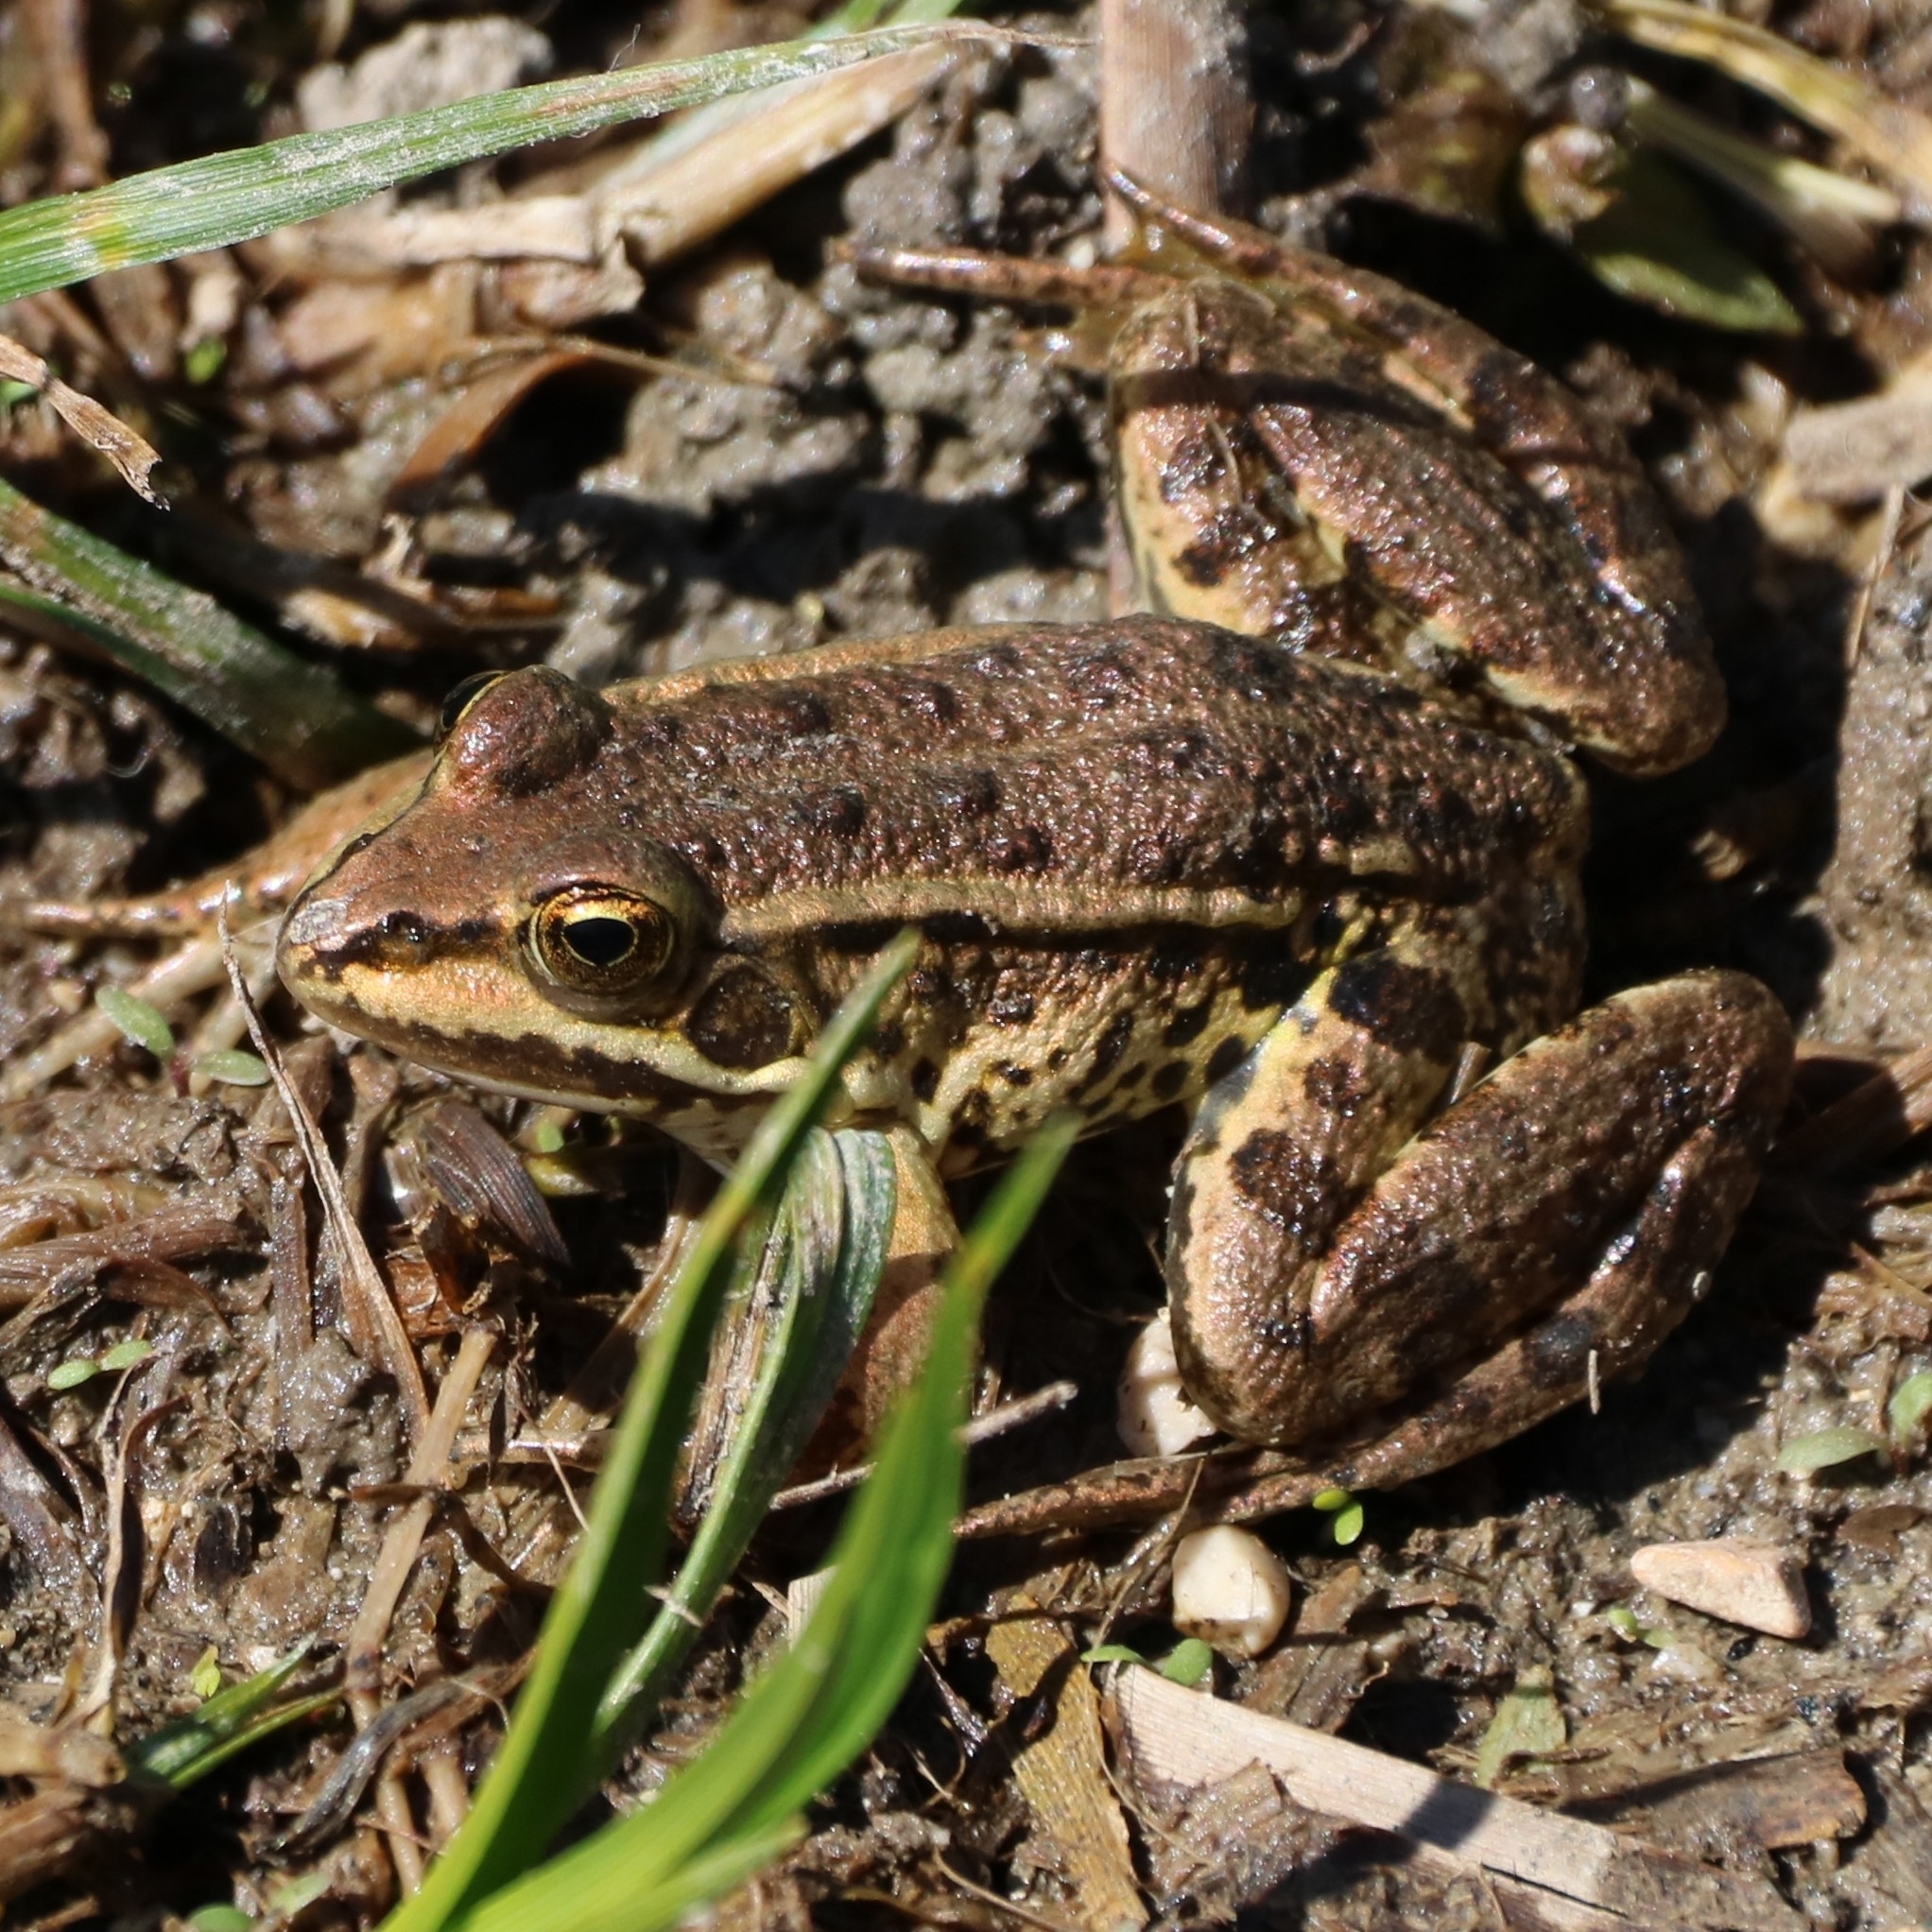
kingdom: Animalia
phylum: Chordata
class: Amphibia
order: Anura
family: Ranidae
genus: Pelophylax
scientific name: Pelophylax
